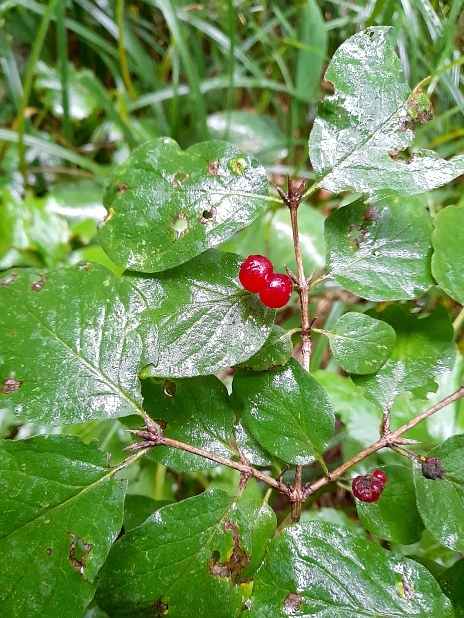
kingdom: Plantae
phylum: Tracheophyta
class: Magnoliopsida
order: Dipsacales
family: Caprifoliaceae
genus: Lonicera
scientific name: Lonicera xylosteum
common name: Fly honeysuckle
